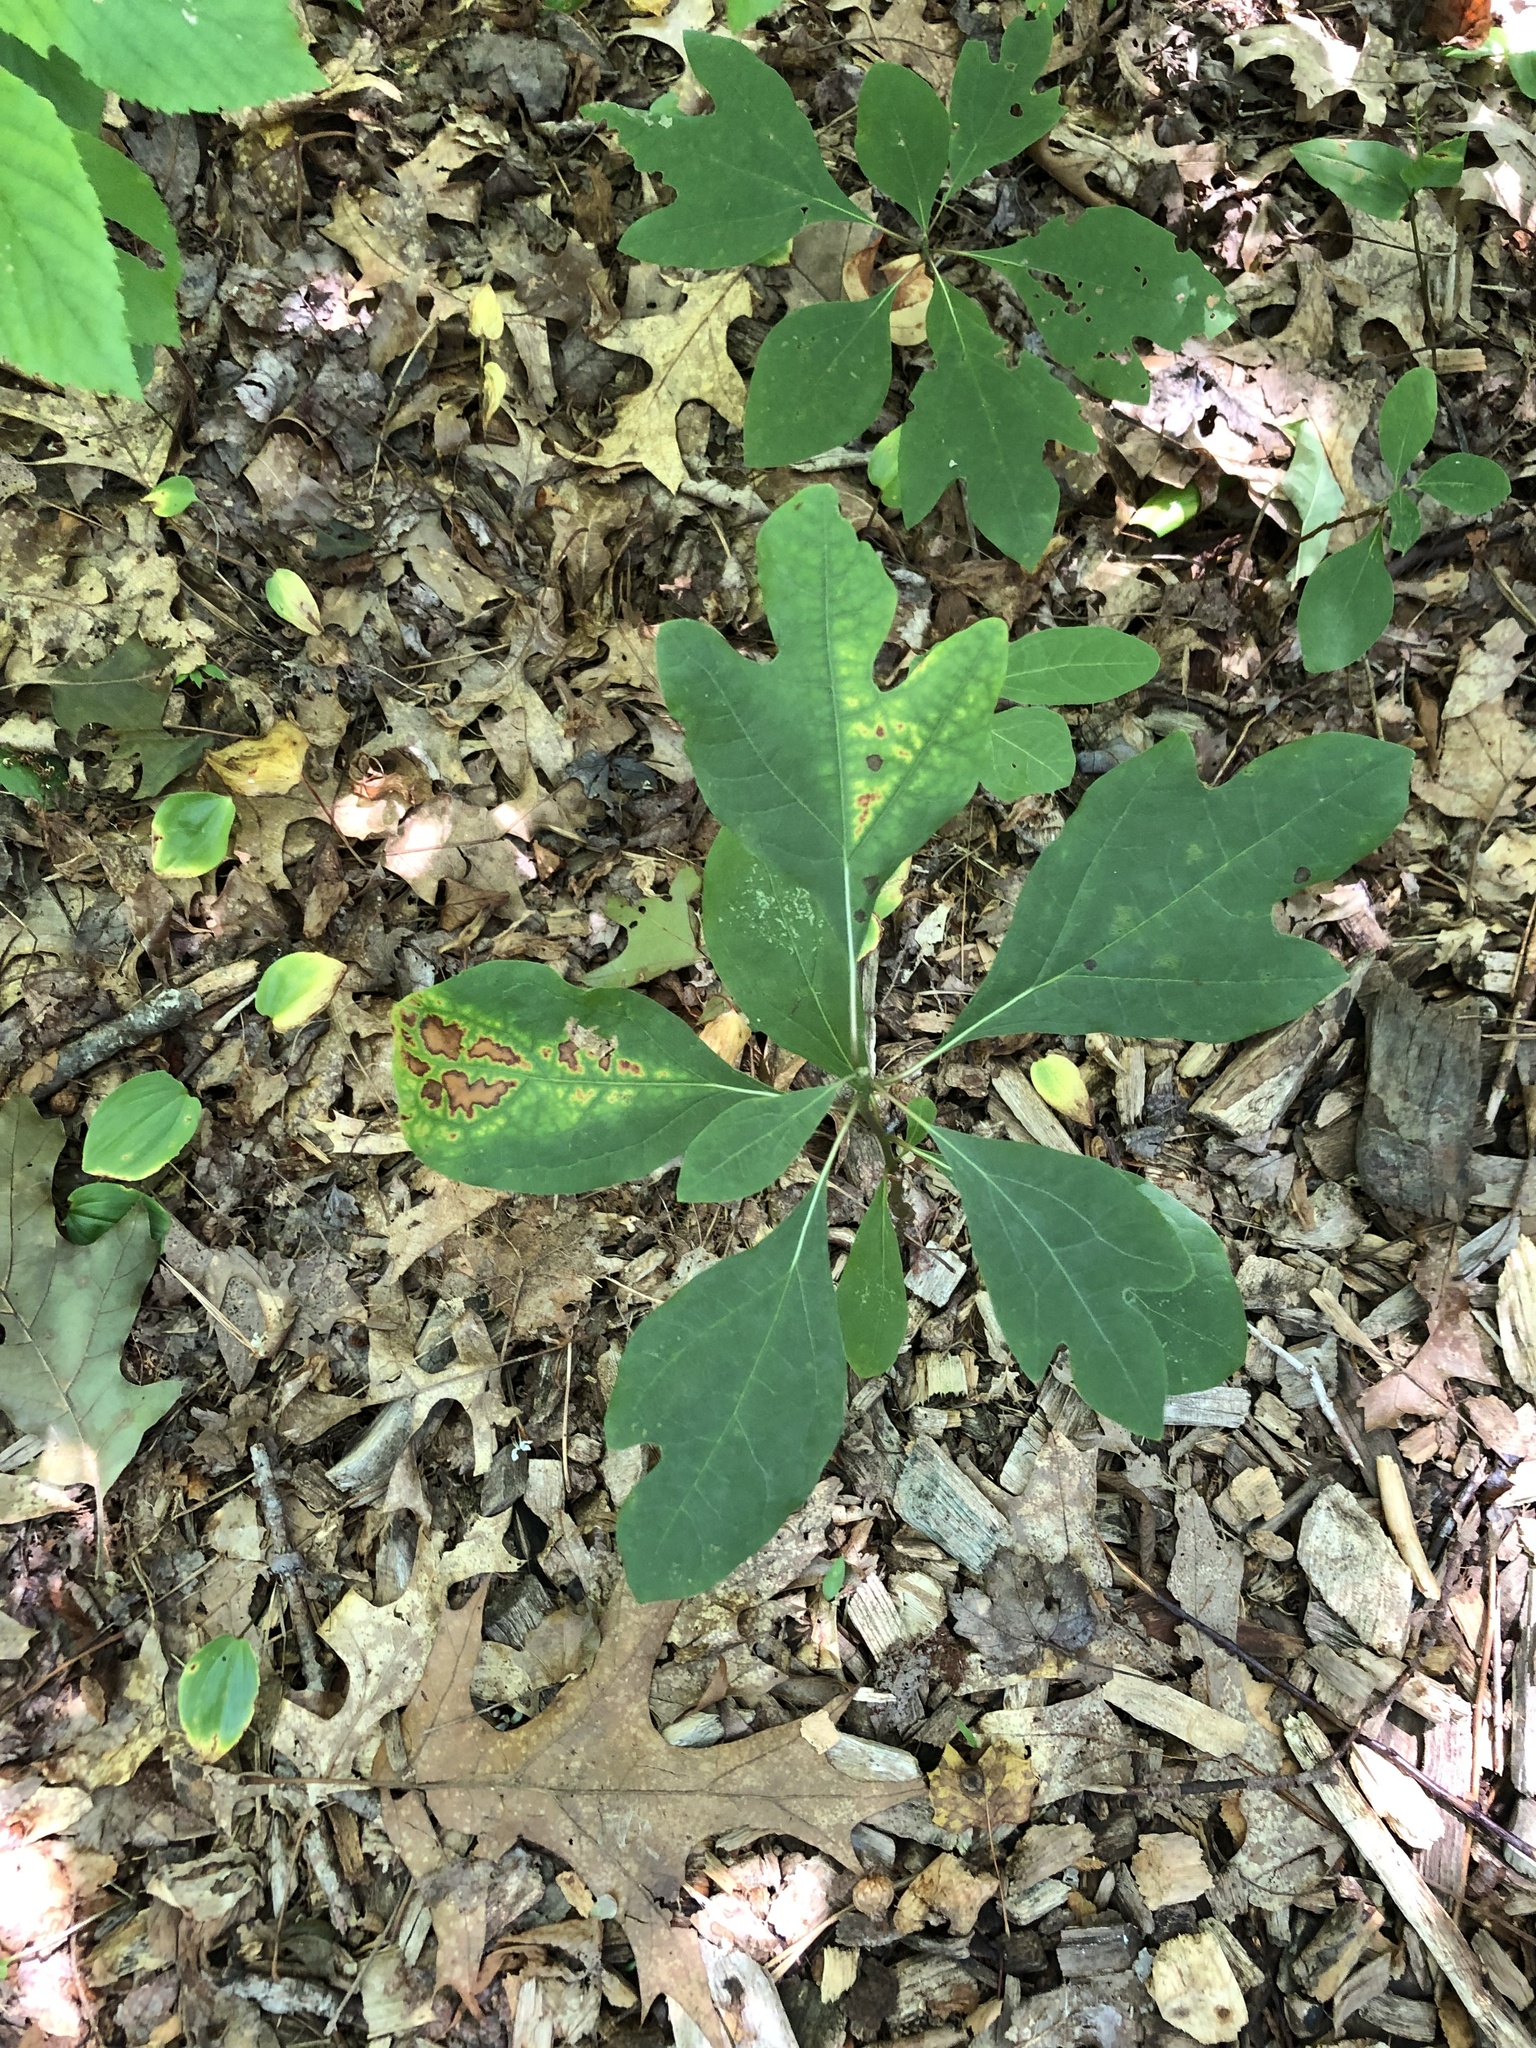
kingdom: Plantae
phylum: Tracheophyta
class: Magnoliopsida
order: Laurales
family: Lauraceae
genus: Sassafras
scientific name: Sassafras albidum
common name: Sassafras
